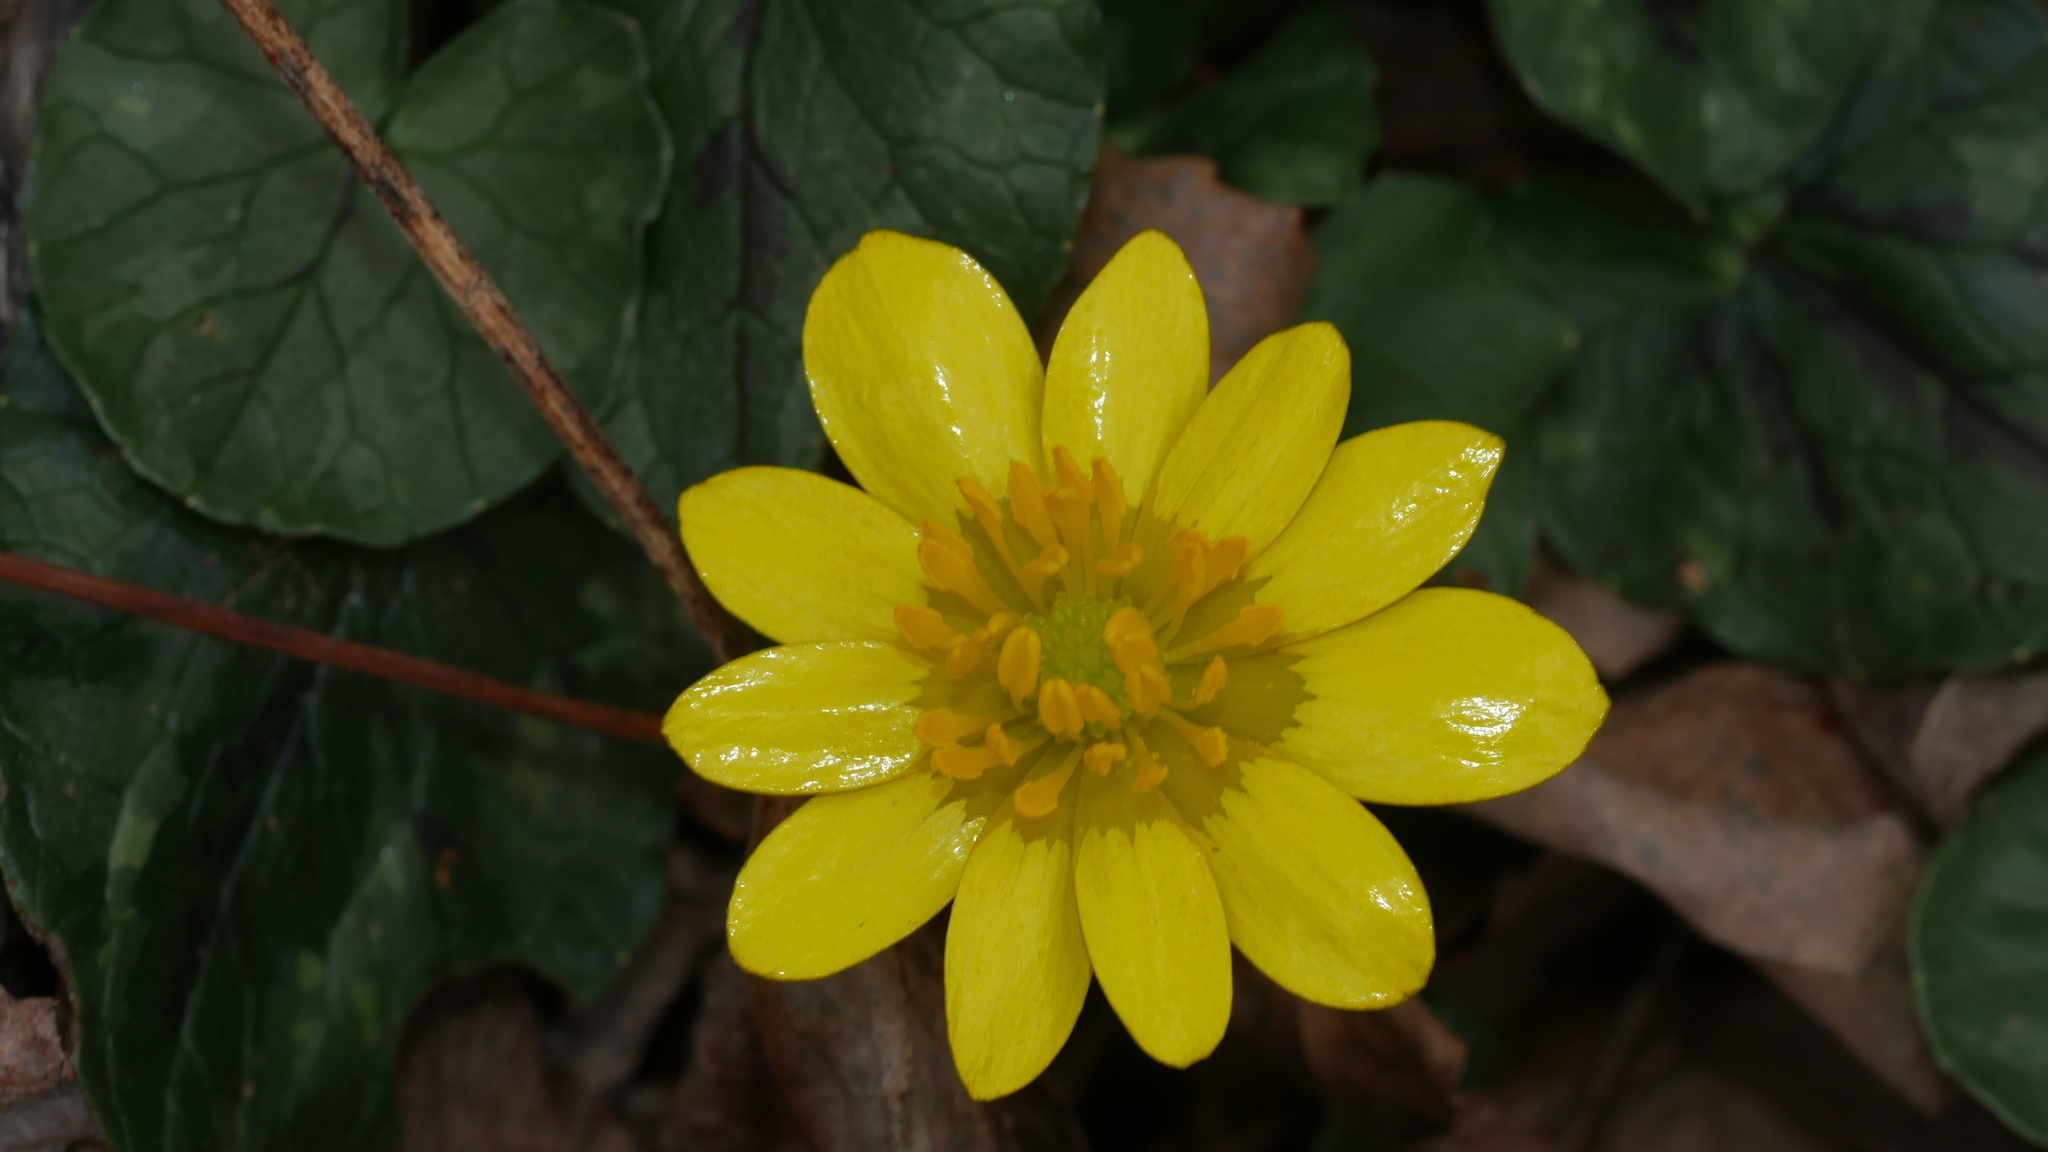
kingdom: Plantae
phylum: Tracheophyta
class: Magnoliopsida
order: Ranunculales
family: Ranunculaceae
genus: Ficaria
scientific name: Ficaria verna
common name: Lesser celandine
